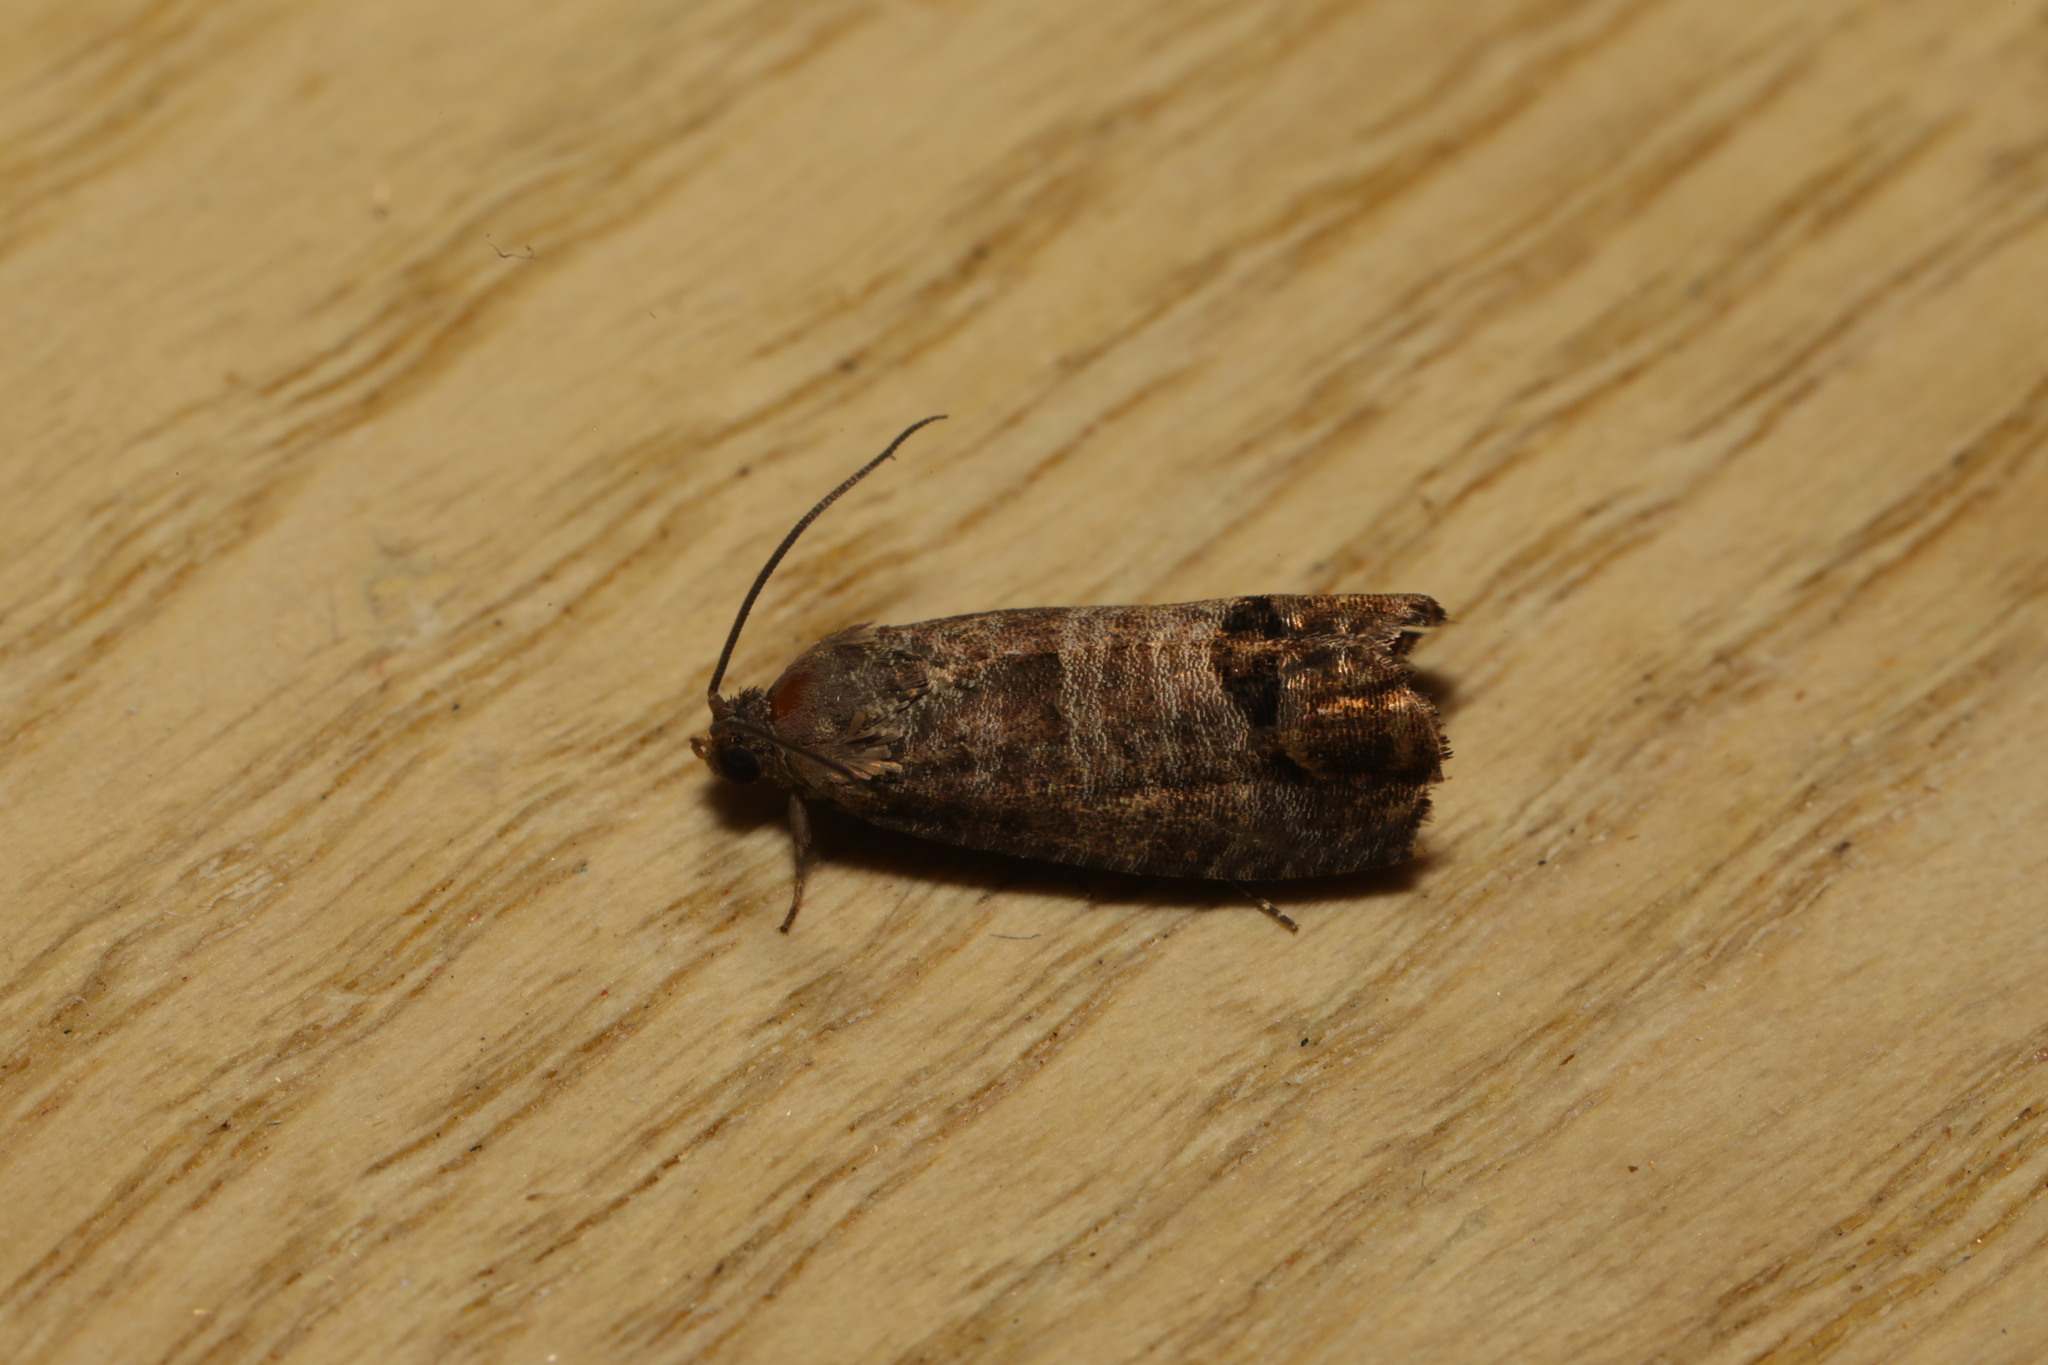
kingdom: Animalia
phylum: Arthropoda
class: Insecta
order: Lepidoptera
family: Tortricidae
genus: Cydia
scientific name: Cydia pomonella
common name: Codling moth
